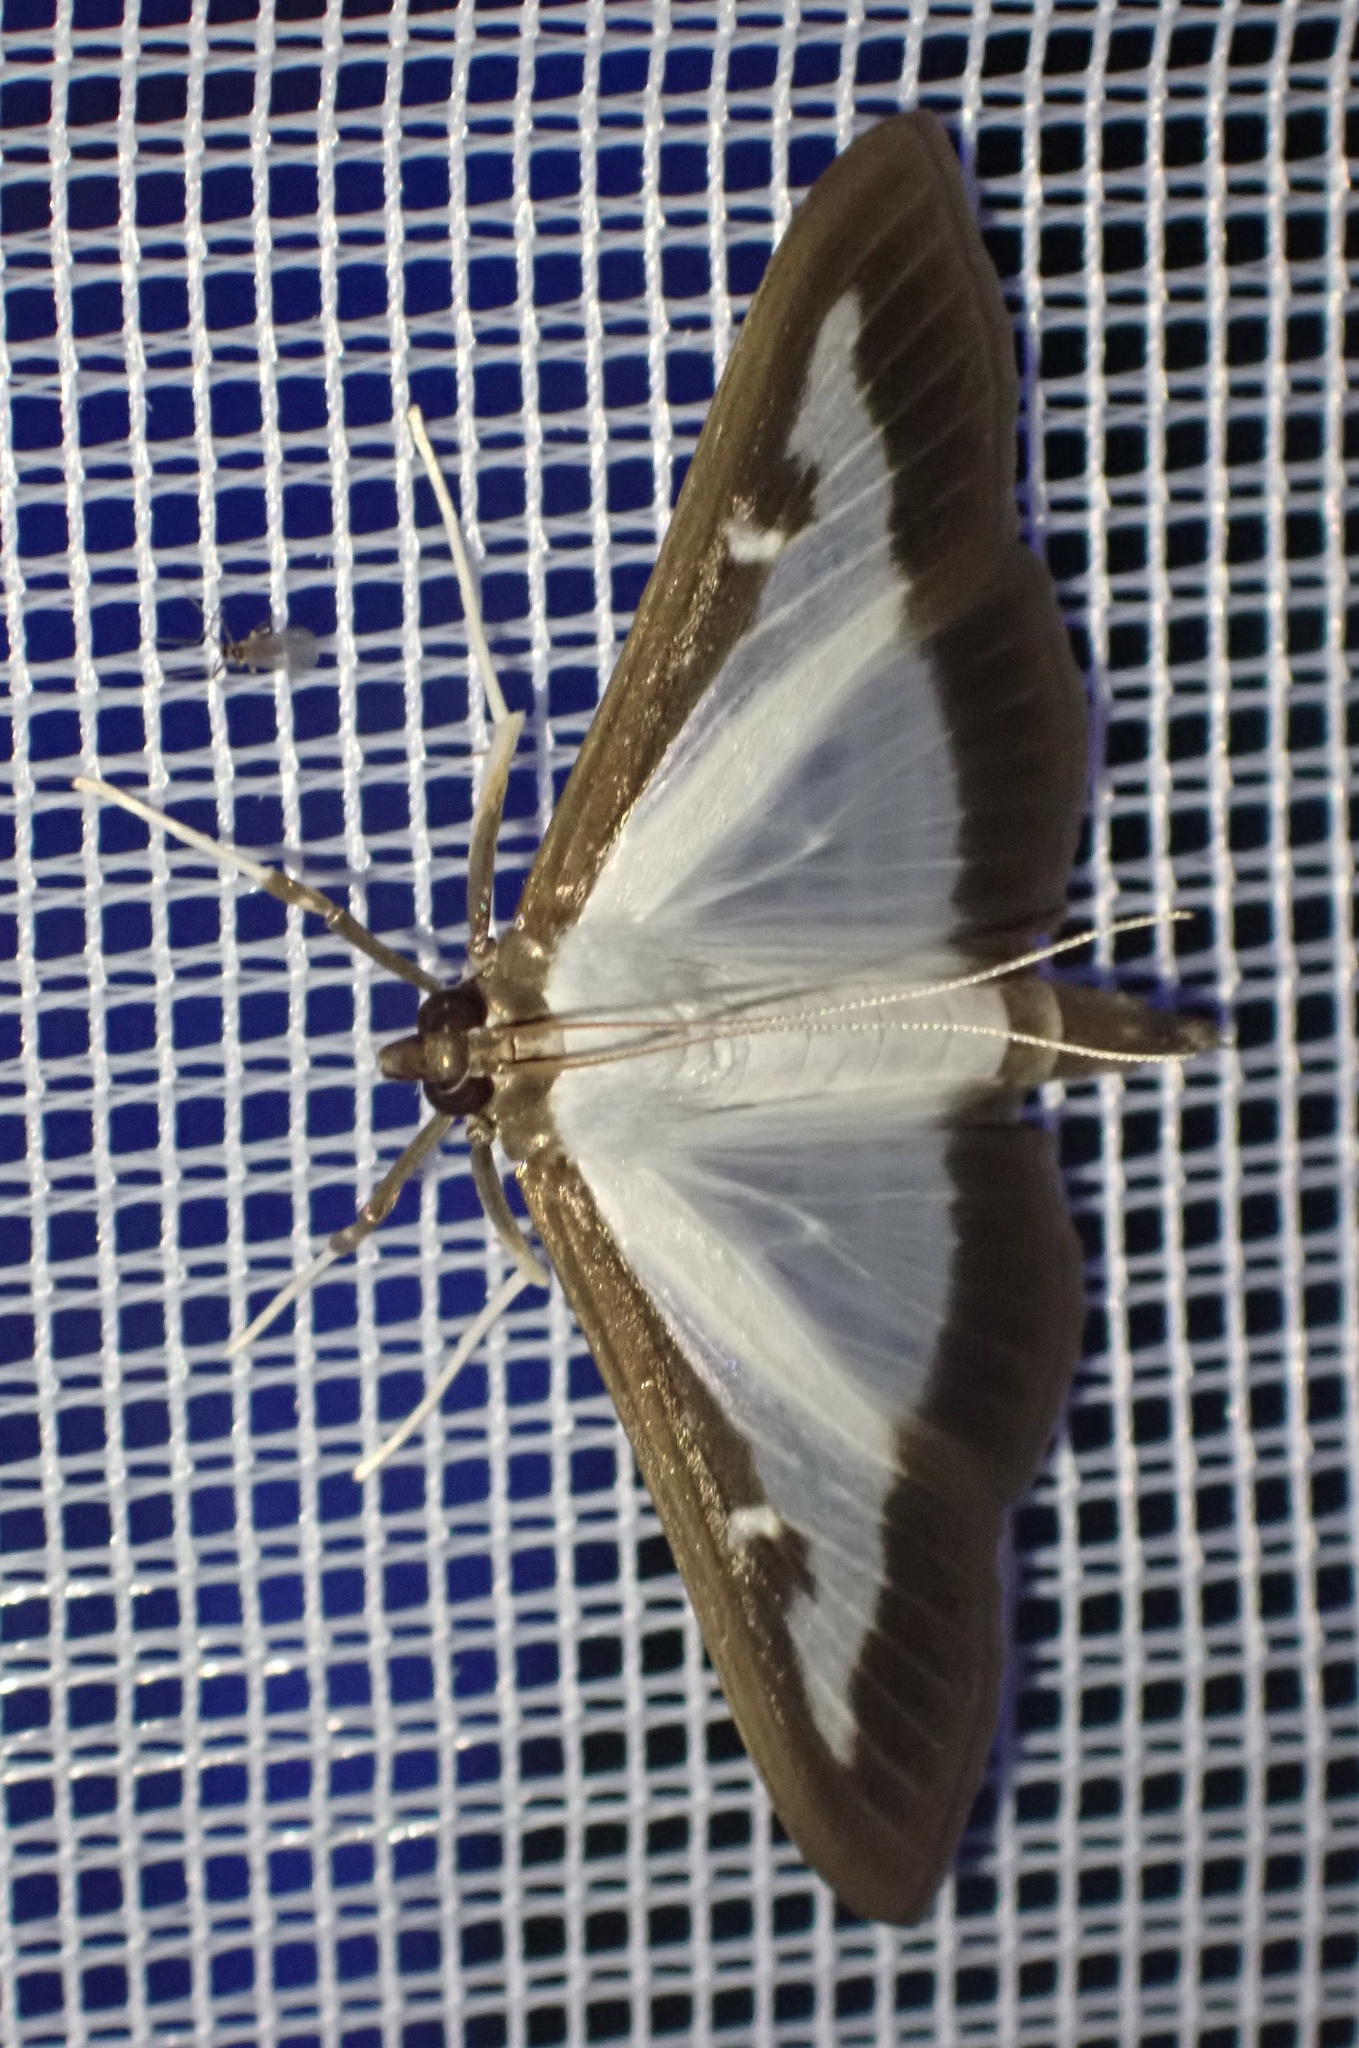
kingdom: Animalia
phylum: Arthropoda
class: Insecta
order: Lepidoptera
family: Crambidae
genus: Cydalima
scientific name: Cydalima perspectalis
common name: Box tree moth
